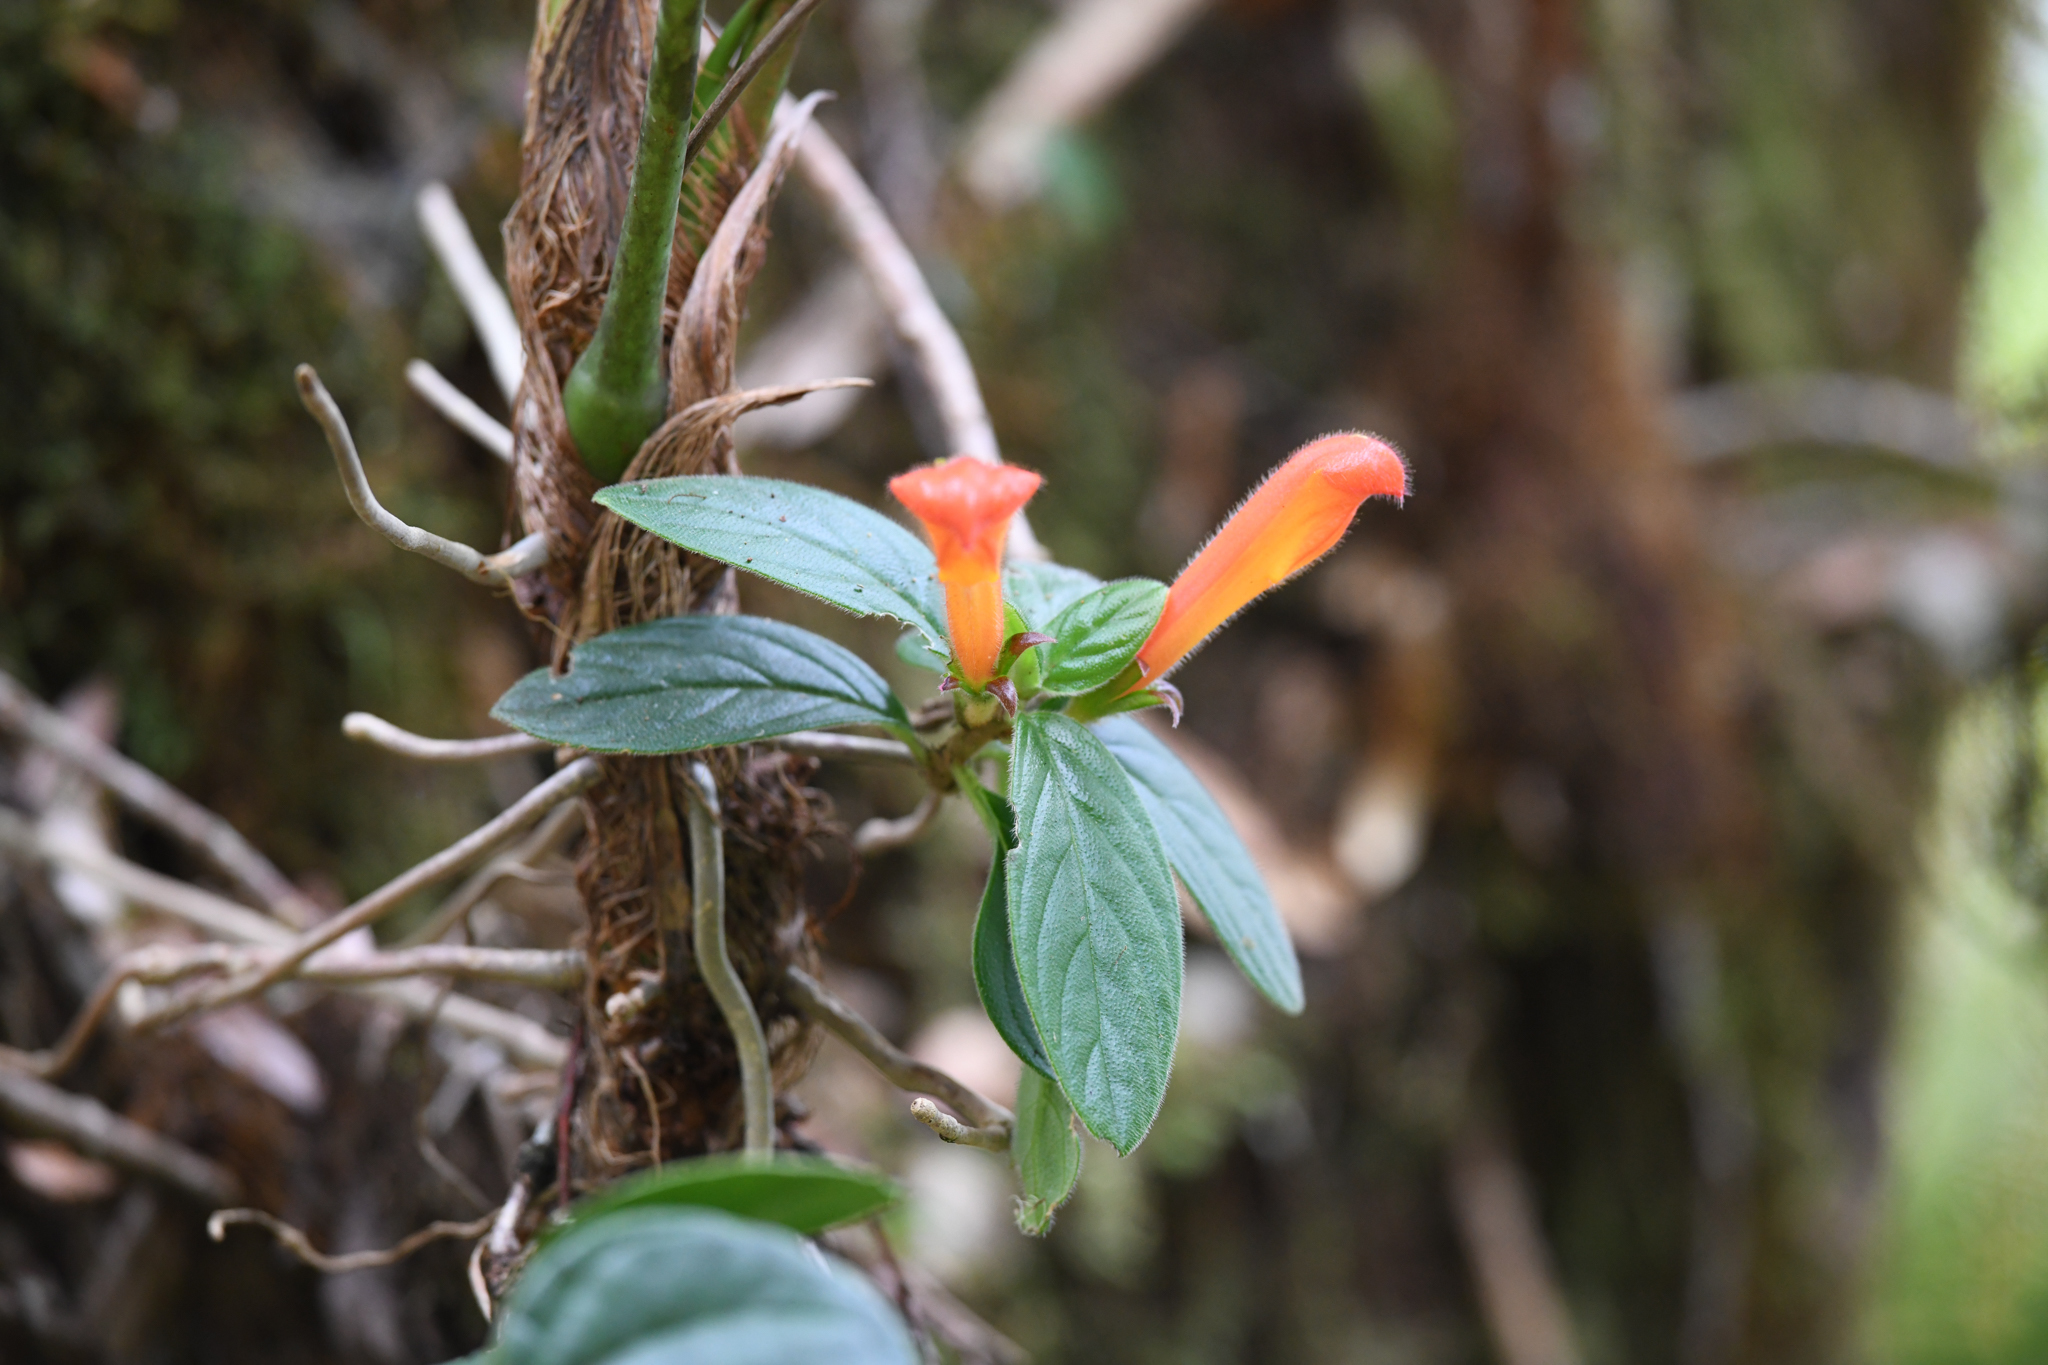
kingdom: Plantae
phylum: Tracheophyta
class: Magnoliopsida
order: Lamiales
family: Gesneriaceae
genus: Columnea
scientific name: Columnea magnifica
